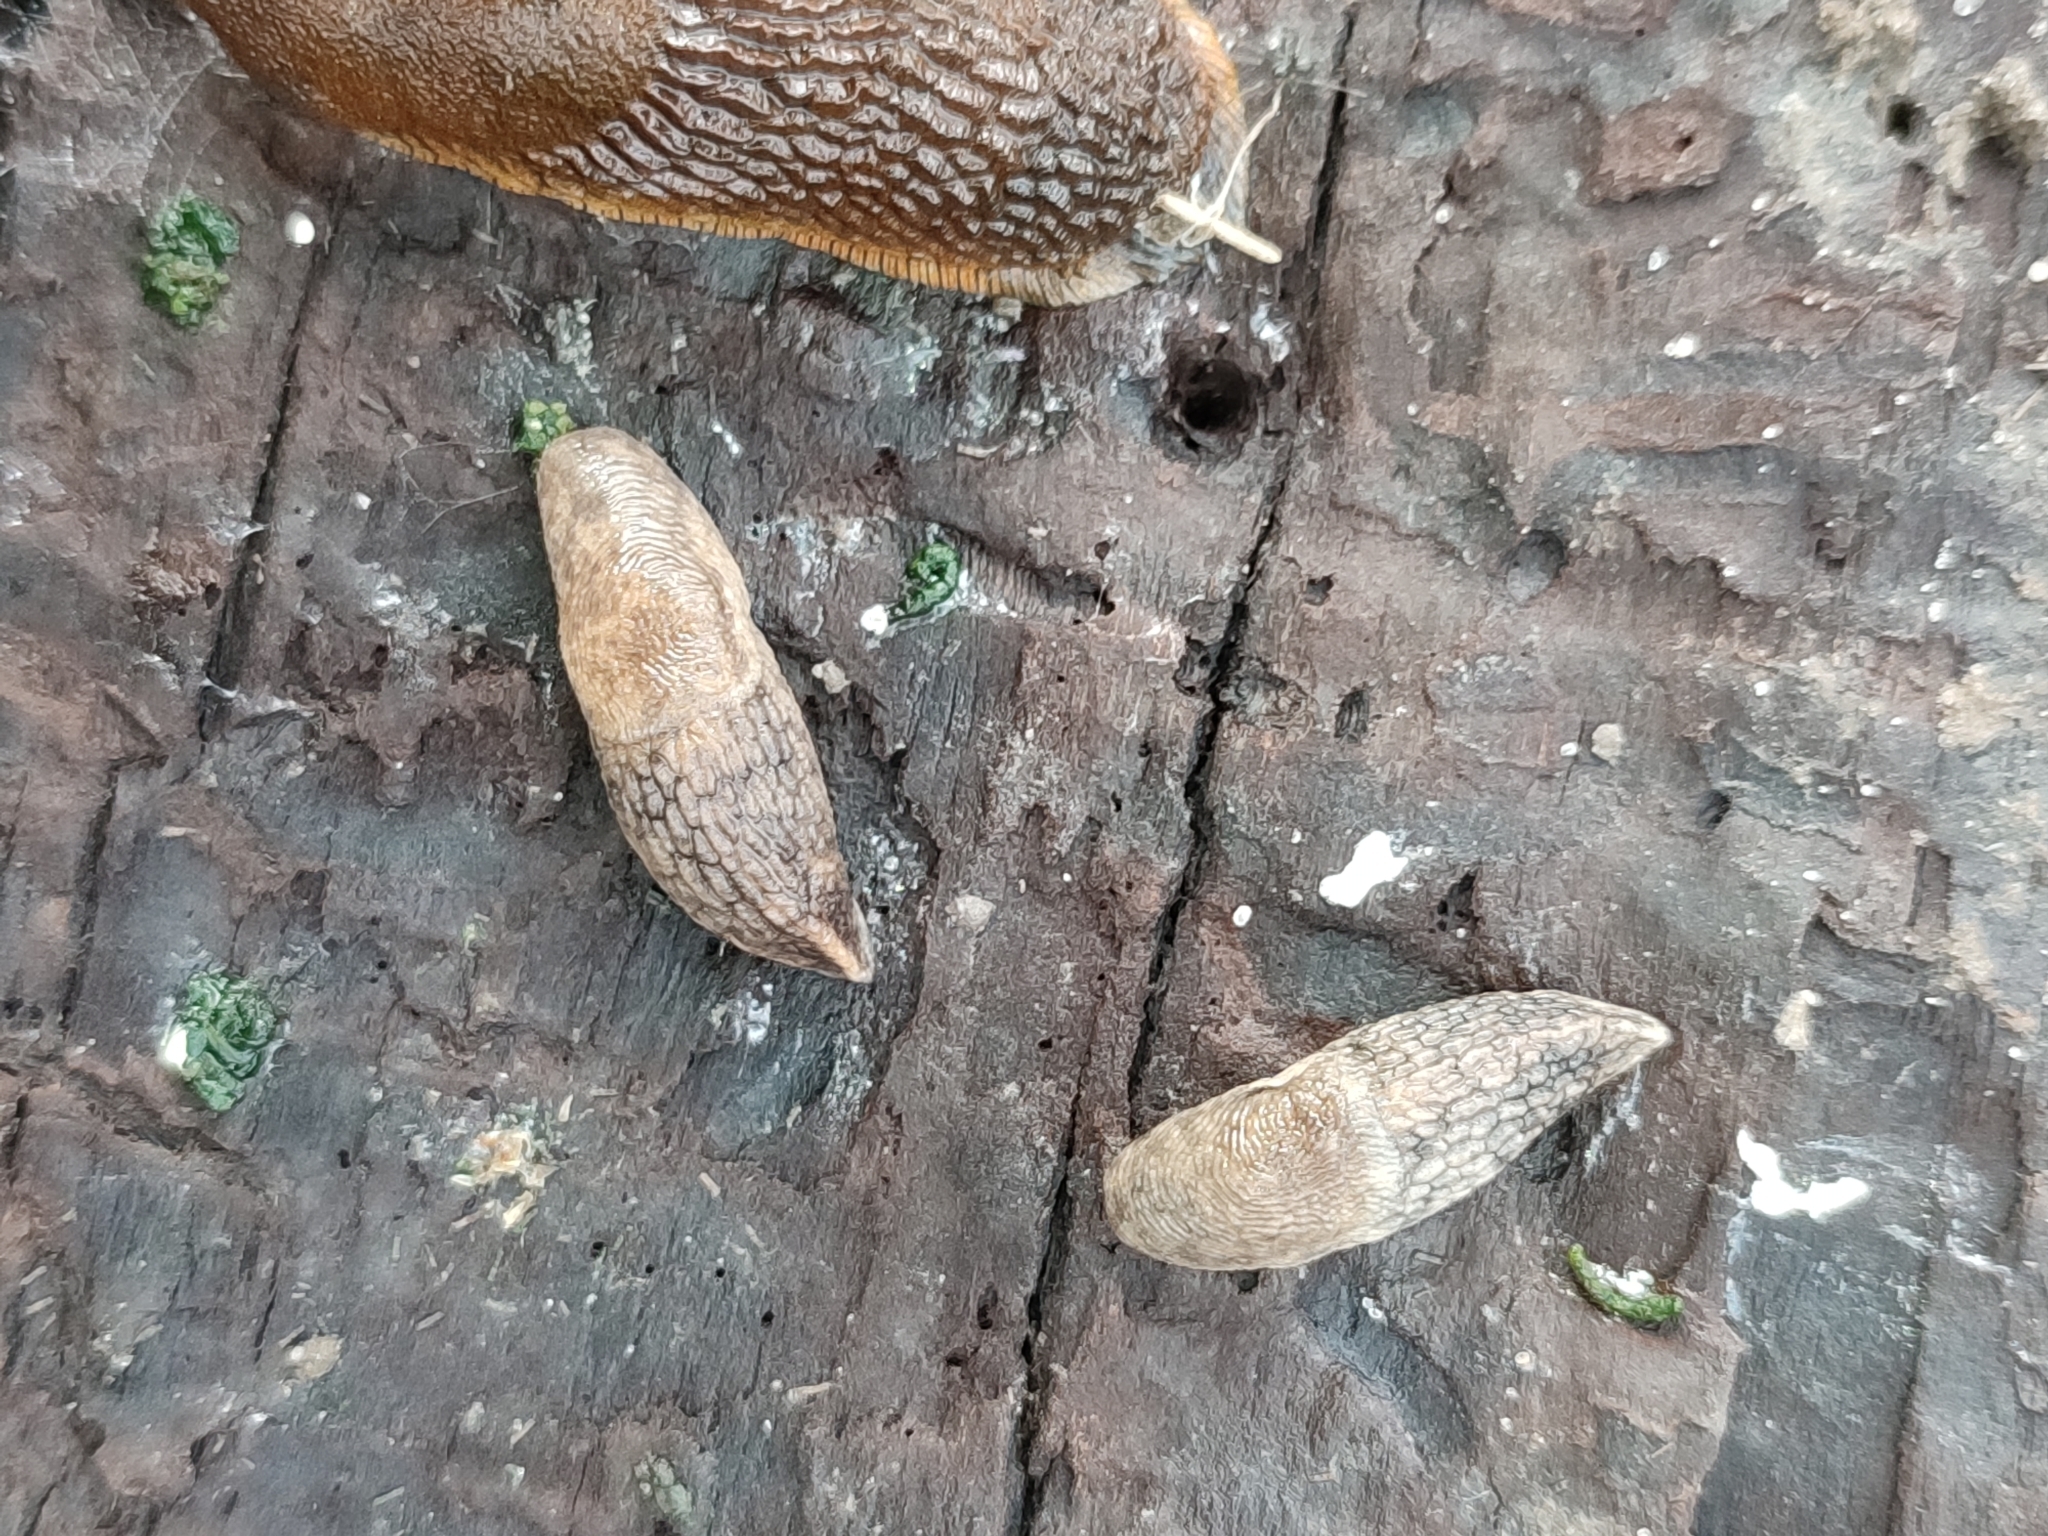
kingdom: Animalia
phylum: Mollusca
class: Gastropoda
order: Stylommatophora
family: Agriolimacidae
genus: Deroceras
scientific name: Deroceras reticulatum
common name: Gray field slug
